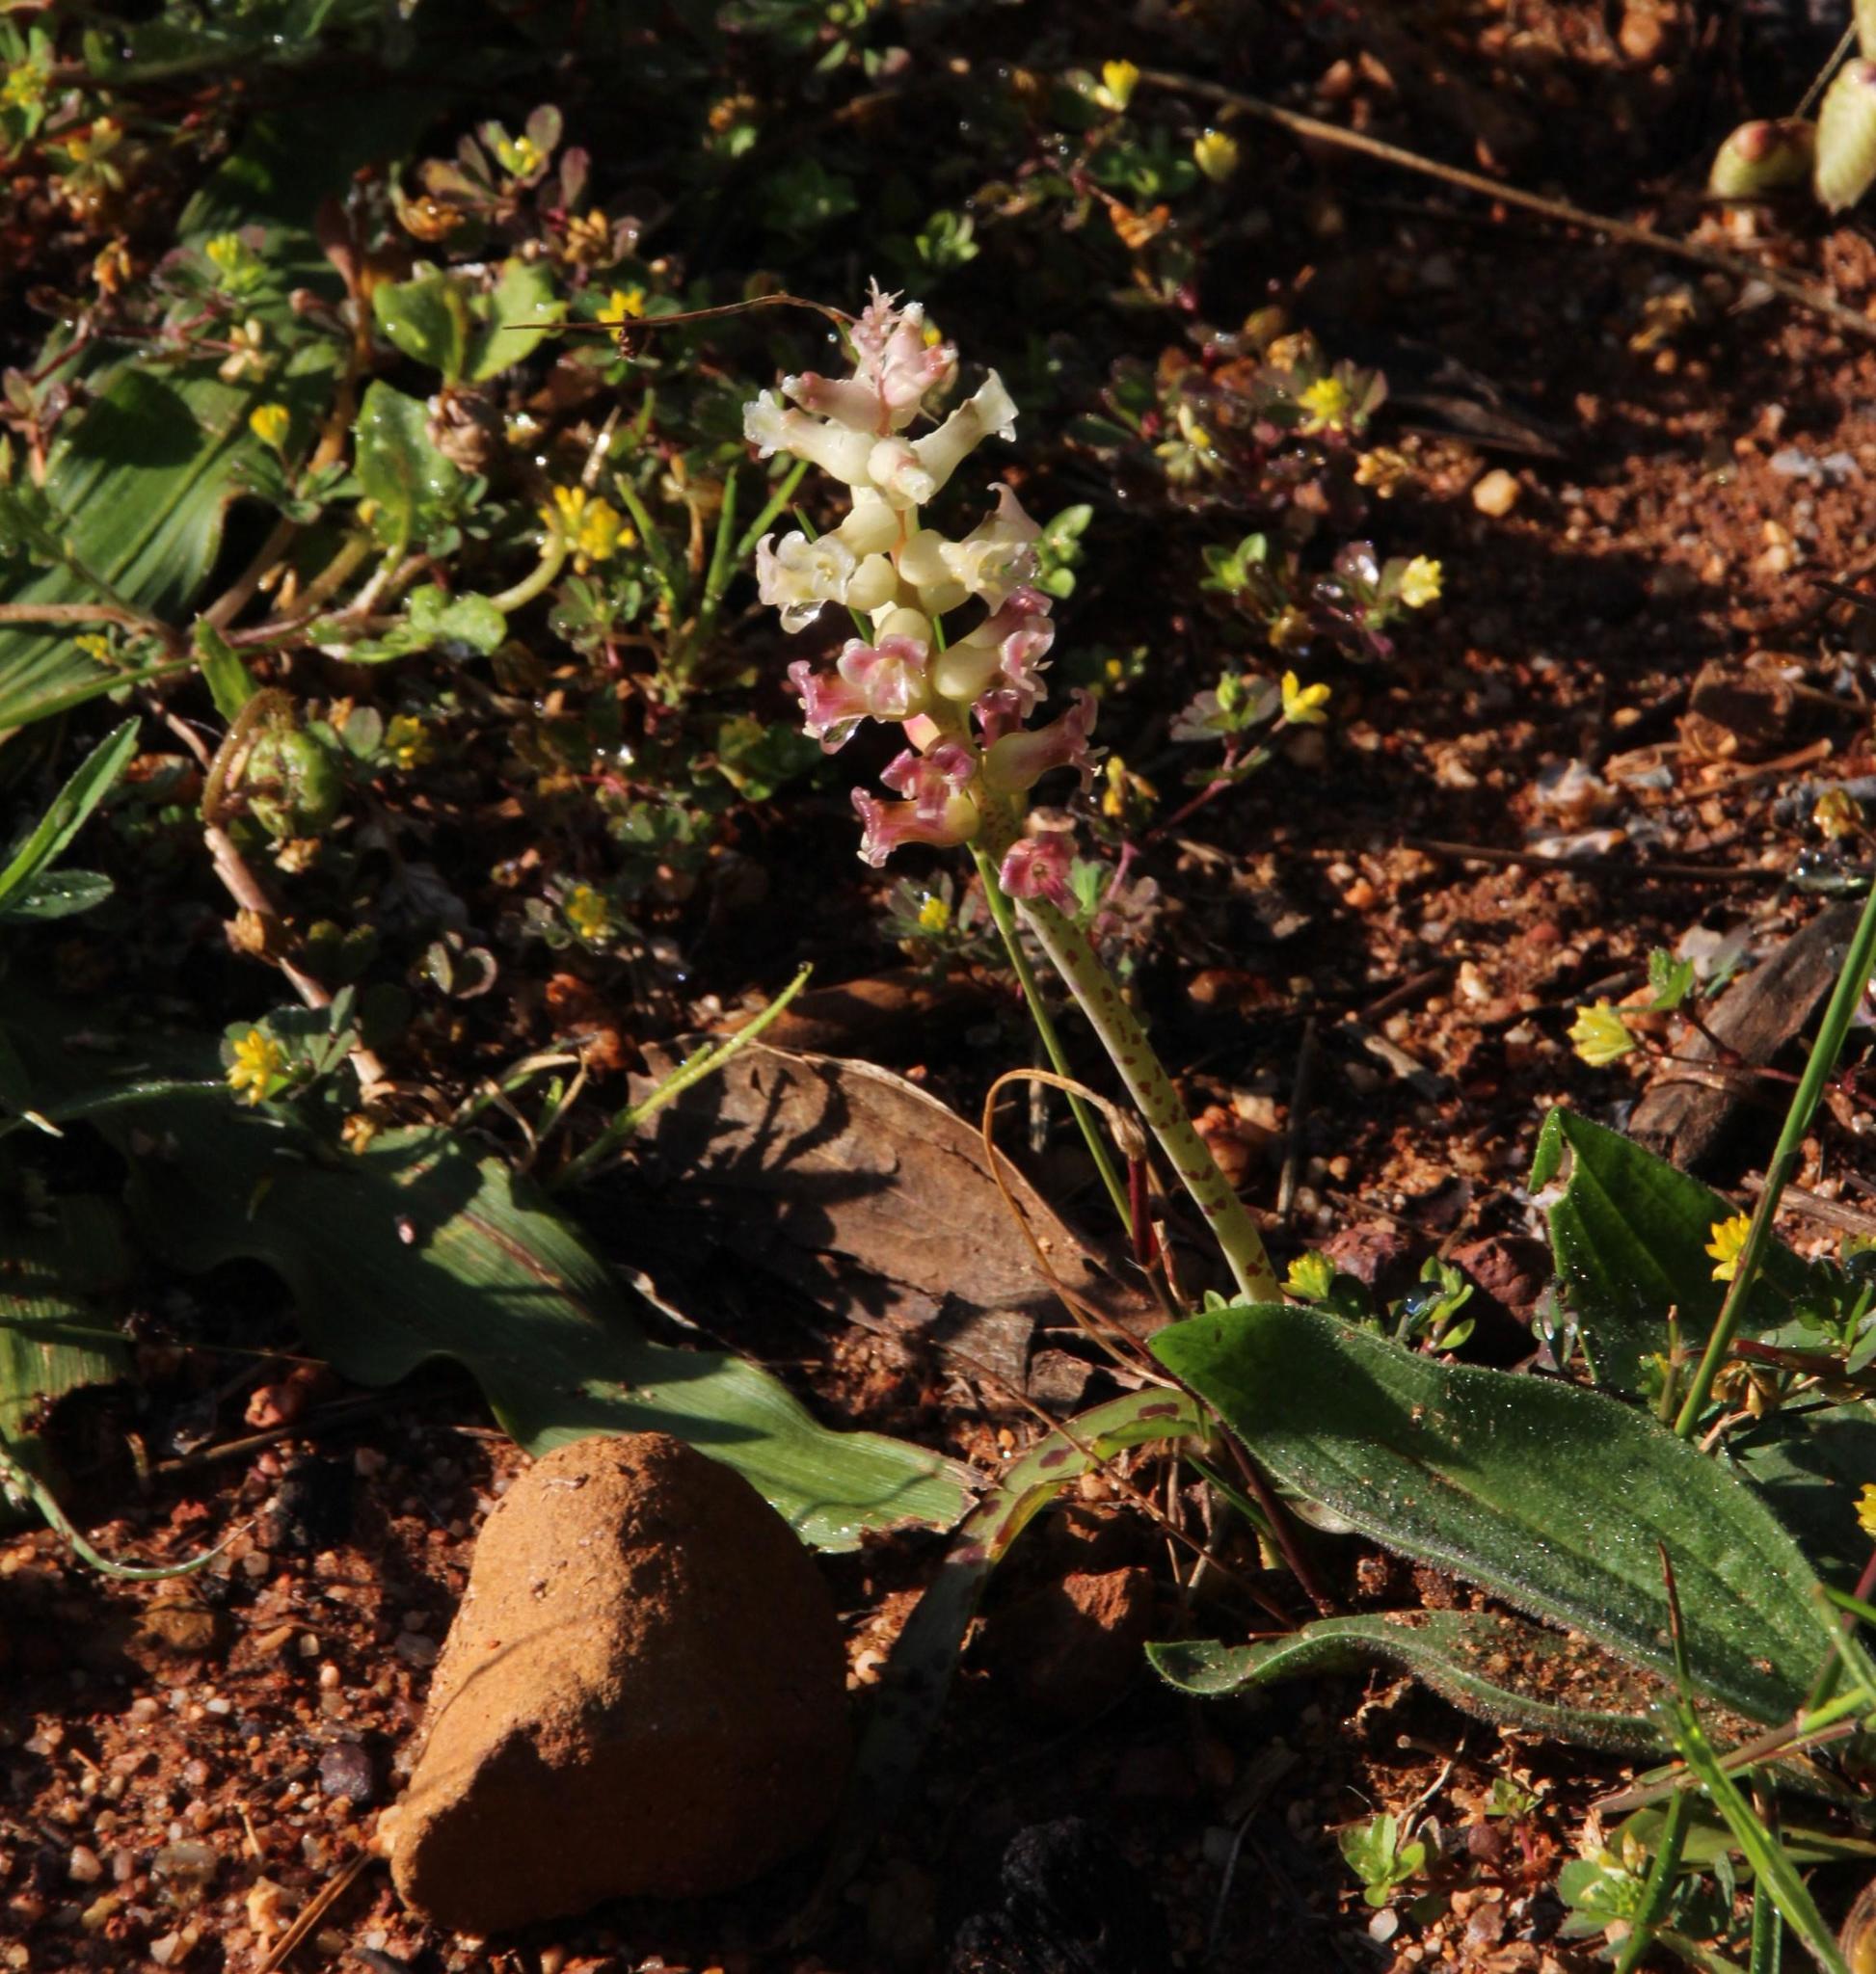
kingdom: Plantae
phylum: Tracheophyta
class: Liliopsida
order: Asparagales
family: Asparagaceae
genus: Lachenalia
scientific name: Lachenalia fistulosa
